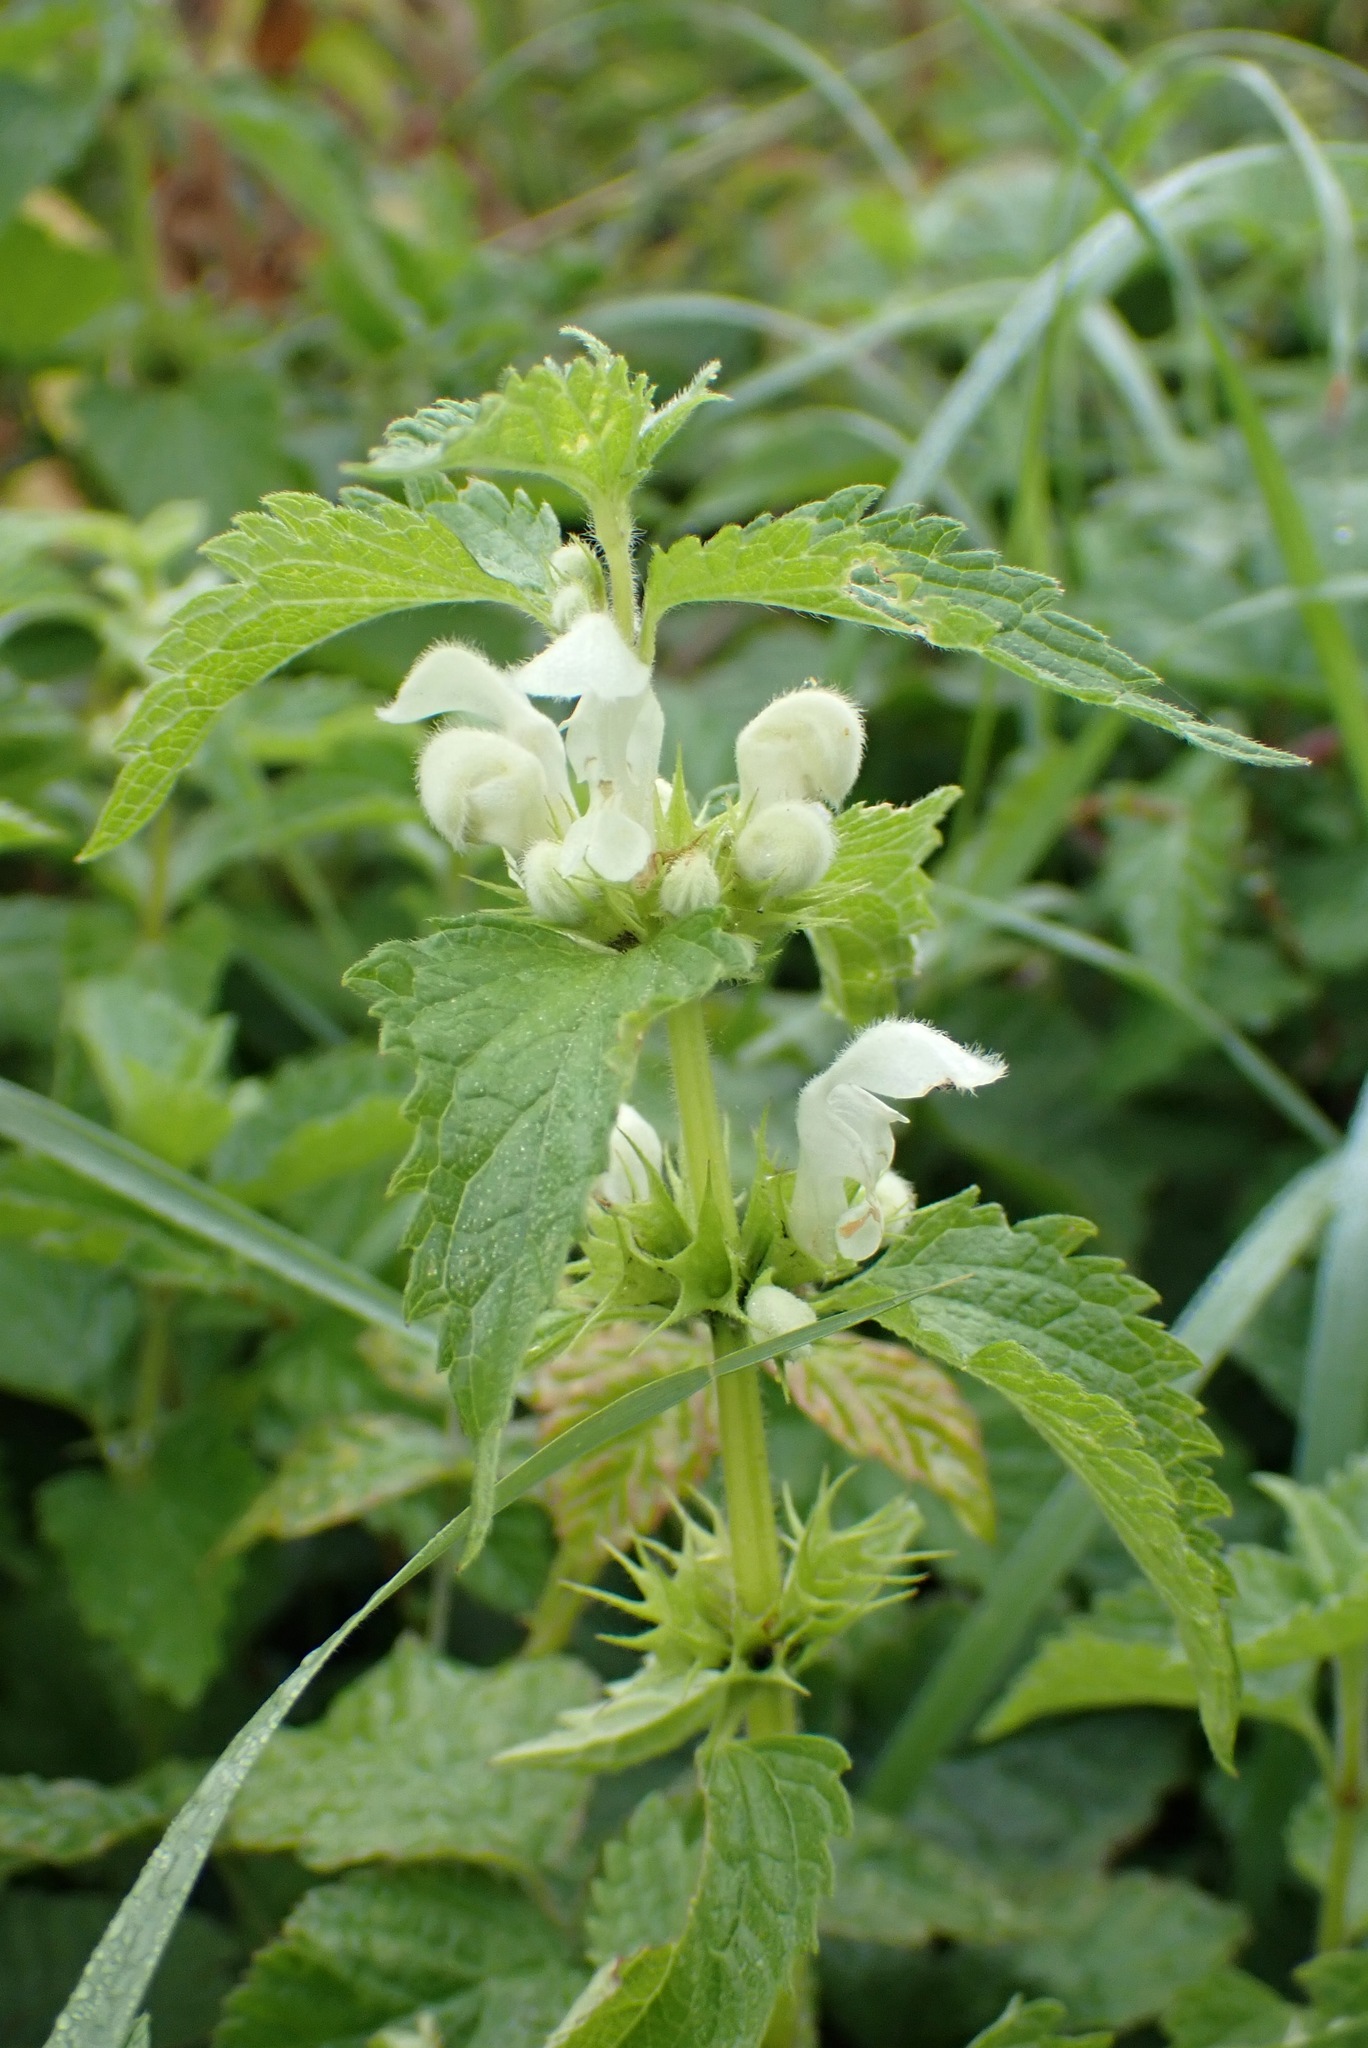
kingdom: Plantae
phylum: Tracheophyta
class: Magnoliopsida
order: Lamiales
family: Lamiaceae
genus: Lamium
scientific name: Lamium album
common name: White dead-nettle
